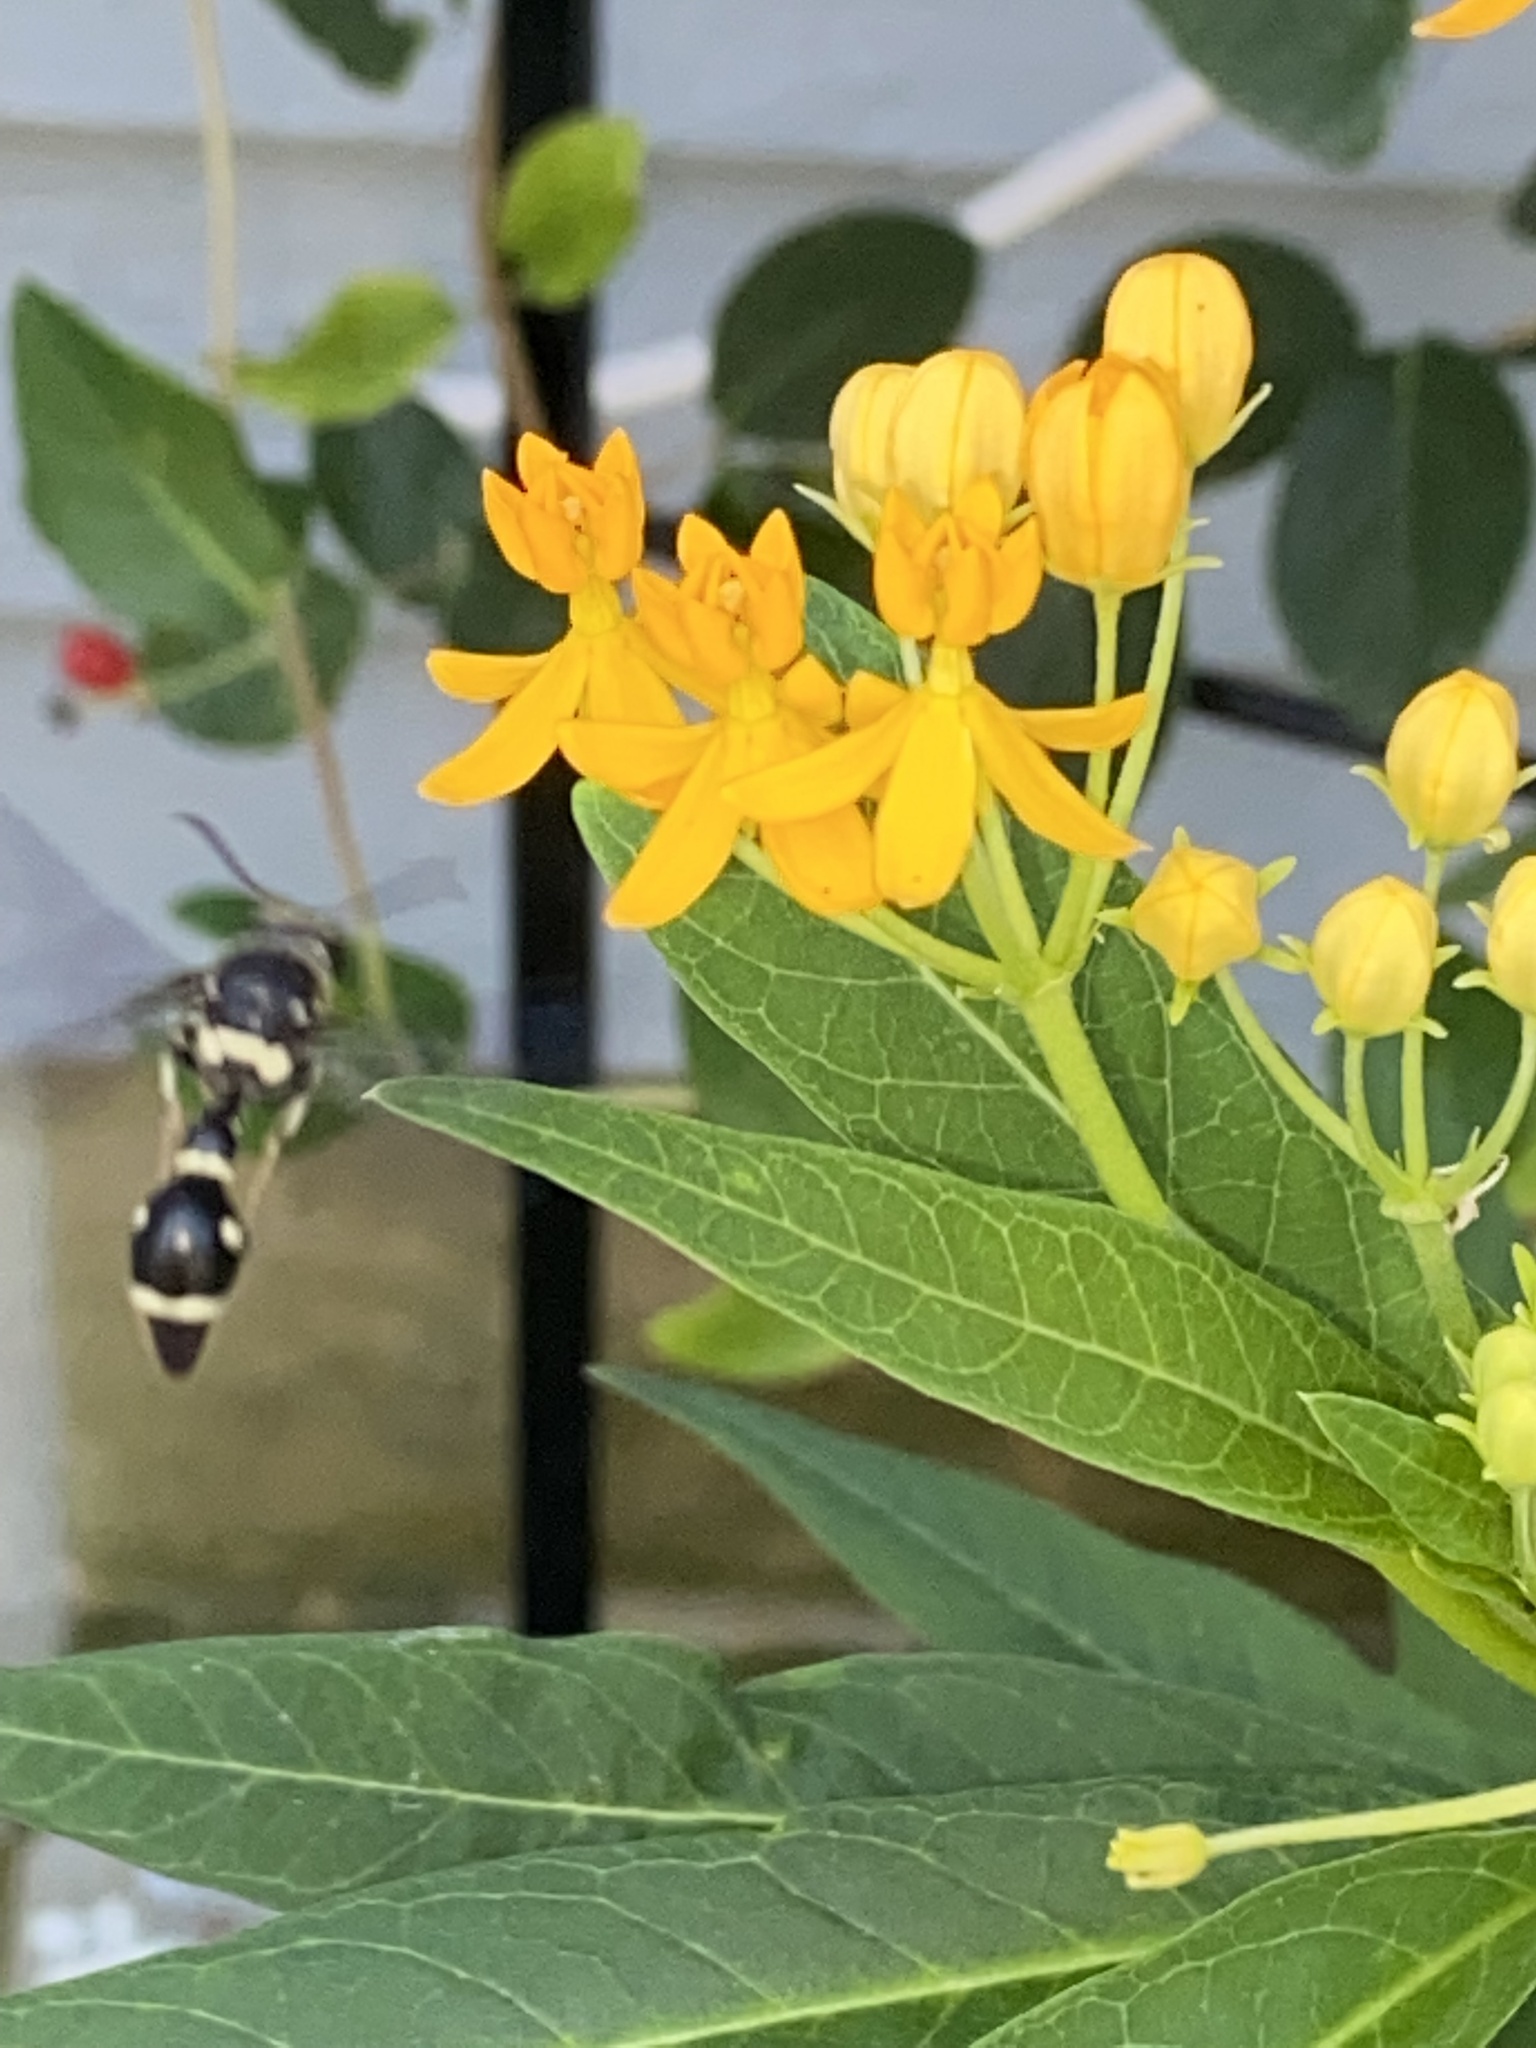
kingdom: Animalia
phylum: Arthropoda
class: Insecta
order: Hymenoptera
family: Vespidae
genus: Eumenes
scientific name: Eumenes fraternus
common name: Fraternal potter wasp
